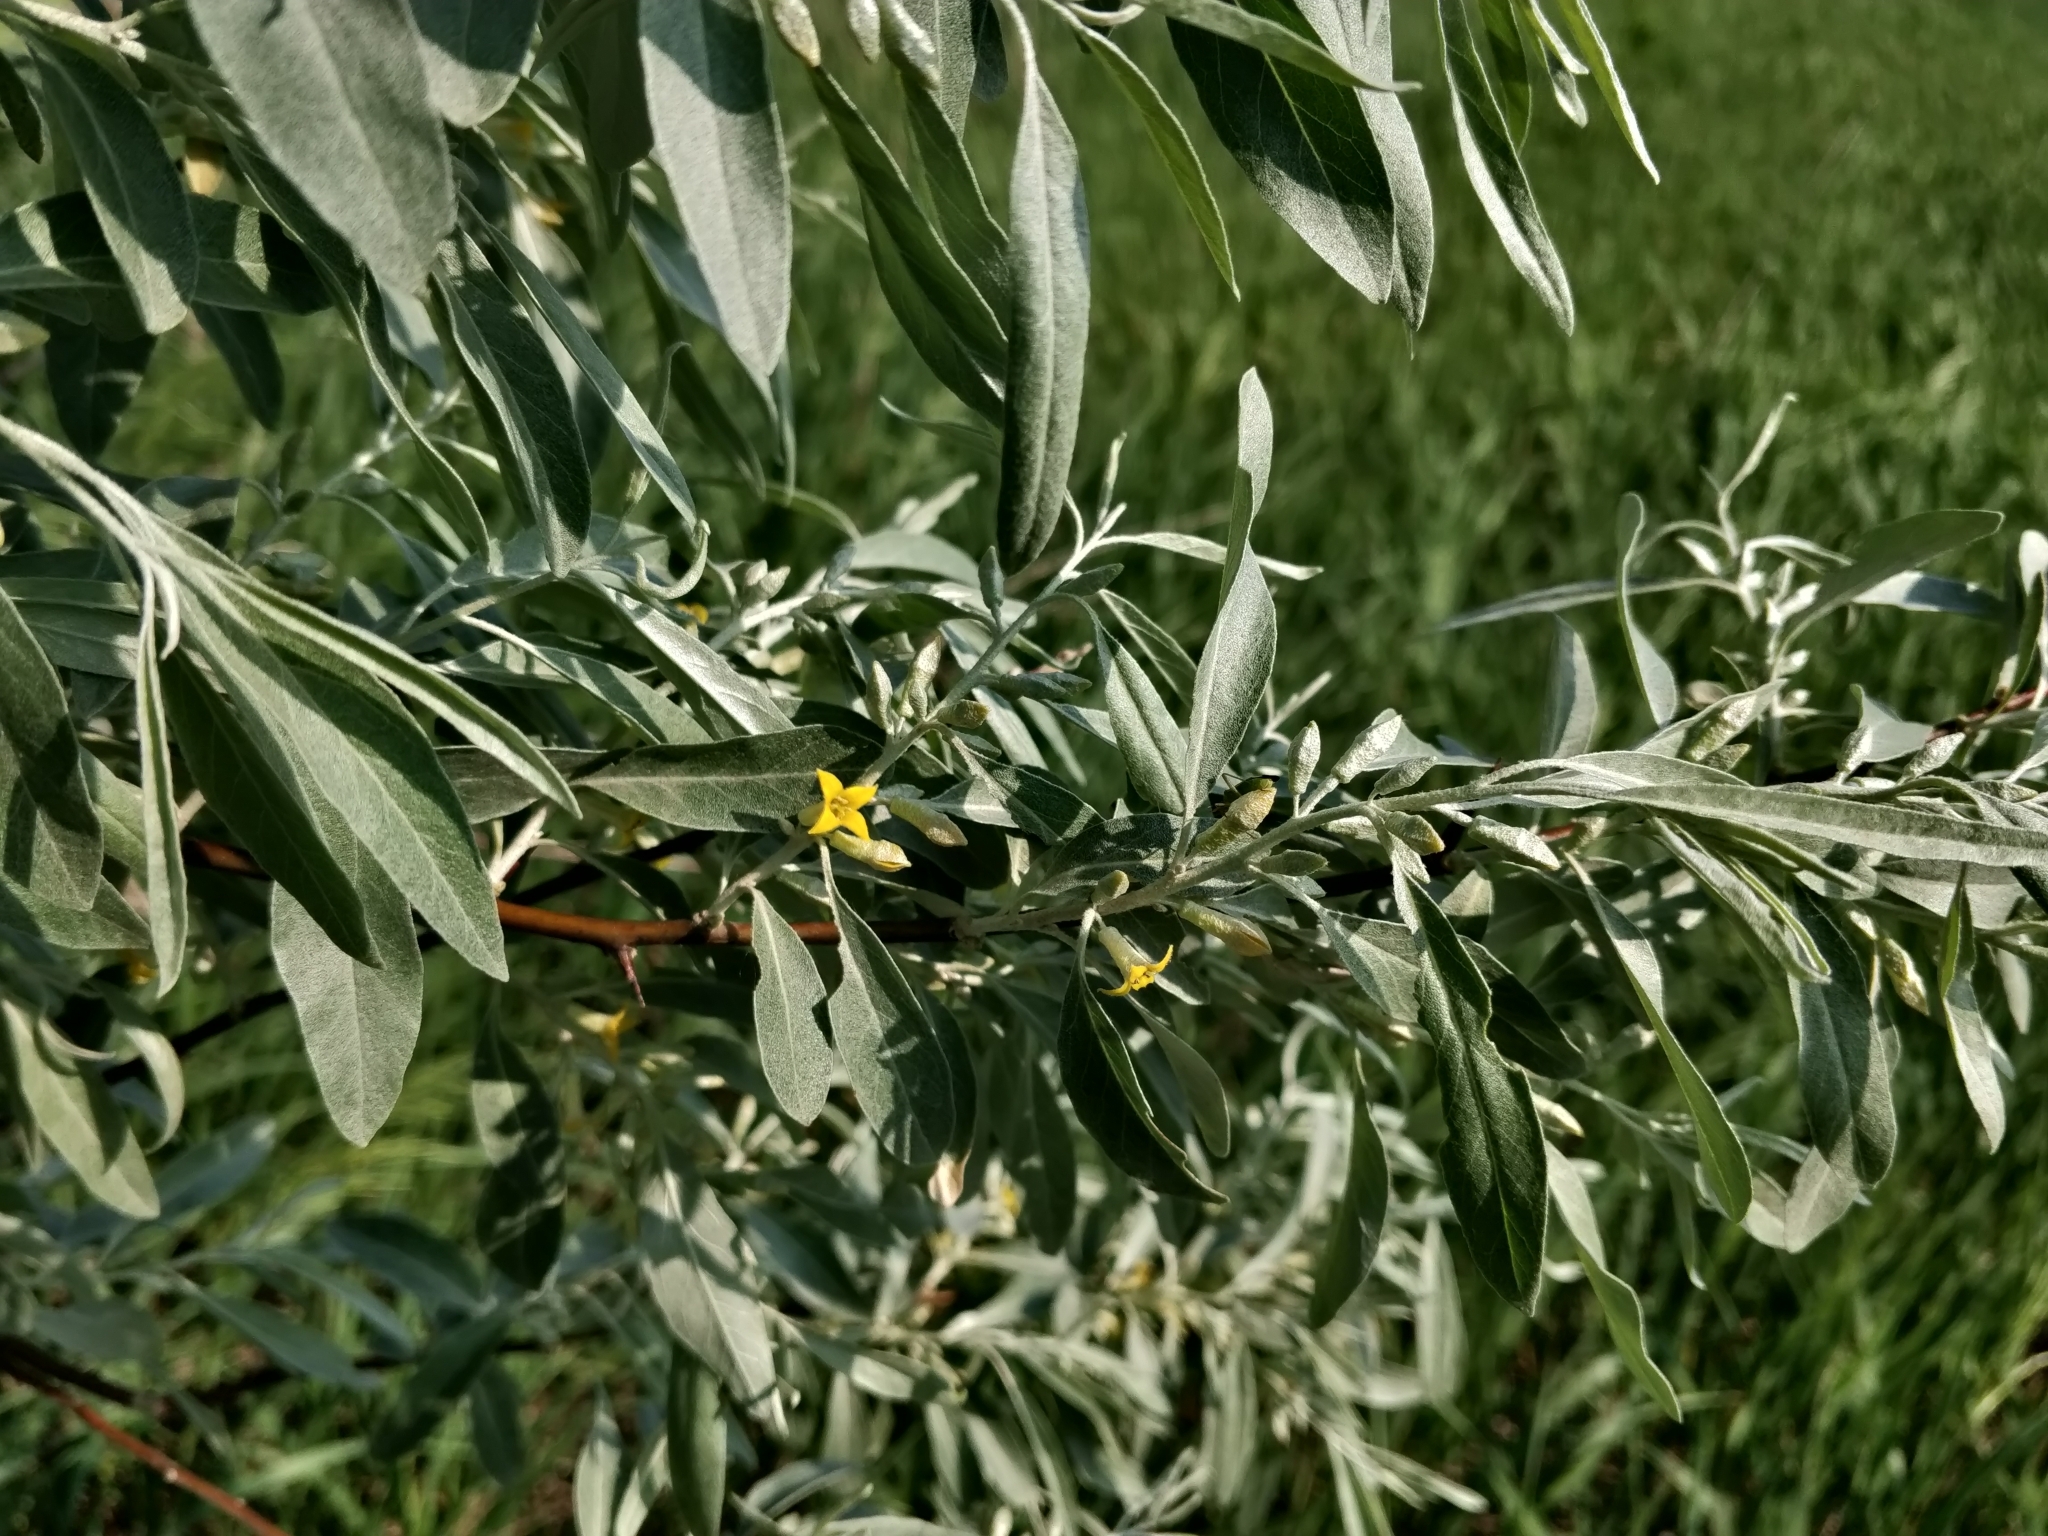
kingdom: Plantae
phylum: Tracheophyta
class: Magnoliopsida
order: Rosales
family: Elaeagnaceae
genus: Elaeagnus
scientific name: Elaeagnus angustifolia
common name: Russian olive
